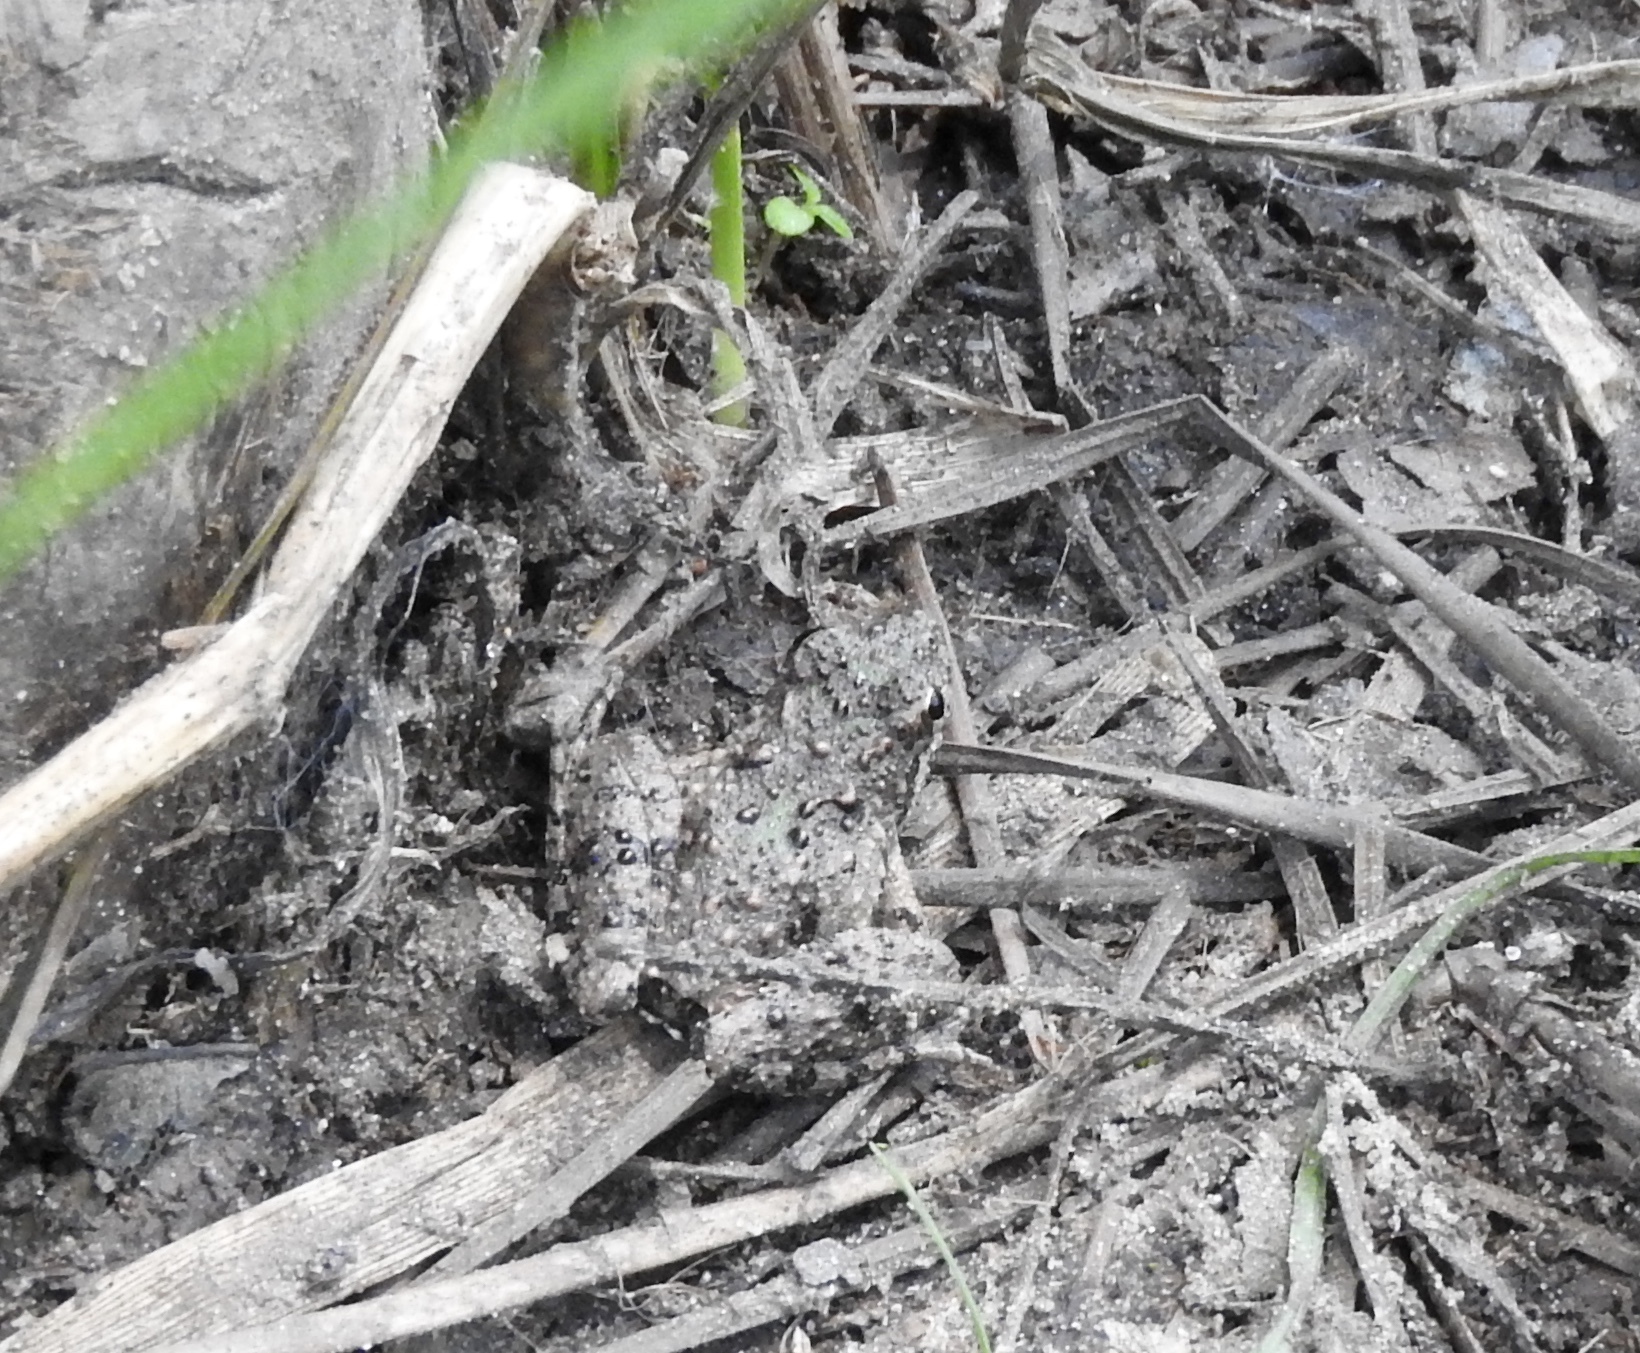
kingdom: Animalia
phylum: Chordata
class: Amphibia
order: Anura
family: Hylidae
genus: Acris
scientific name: Acris blanchardi
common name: Blanchard's cricket frog
